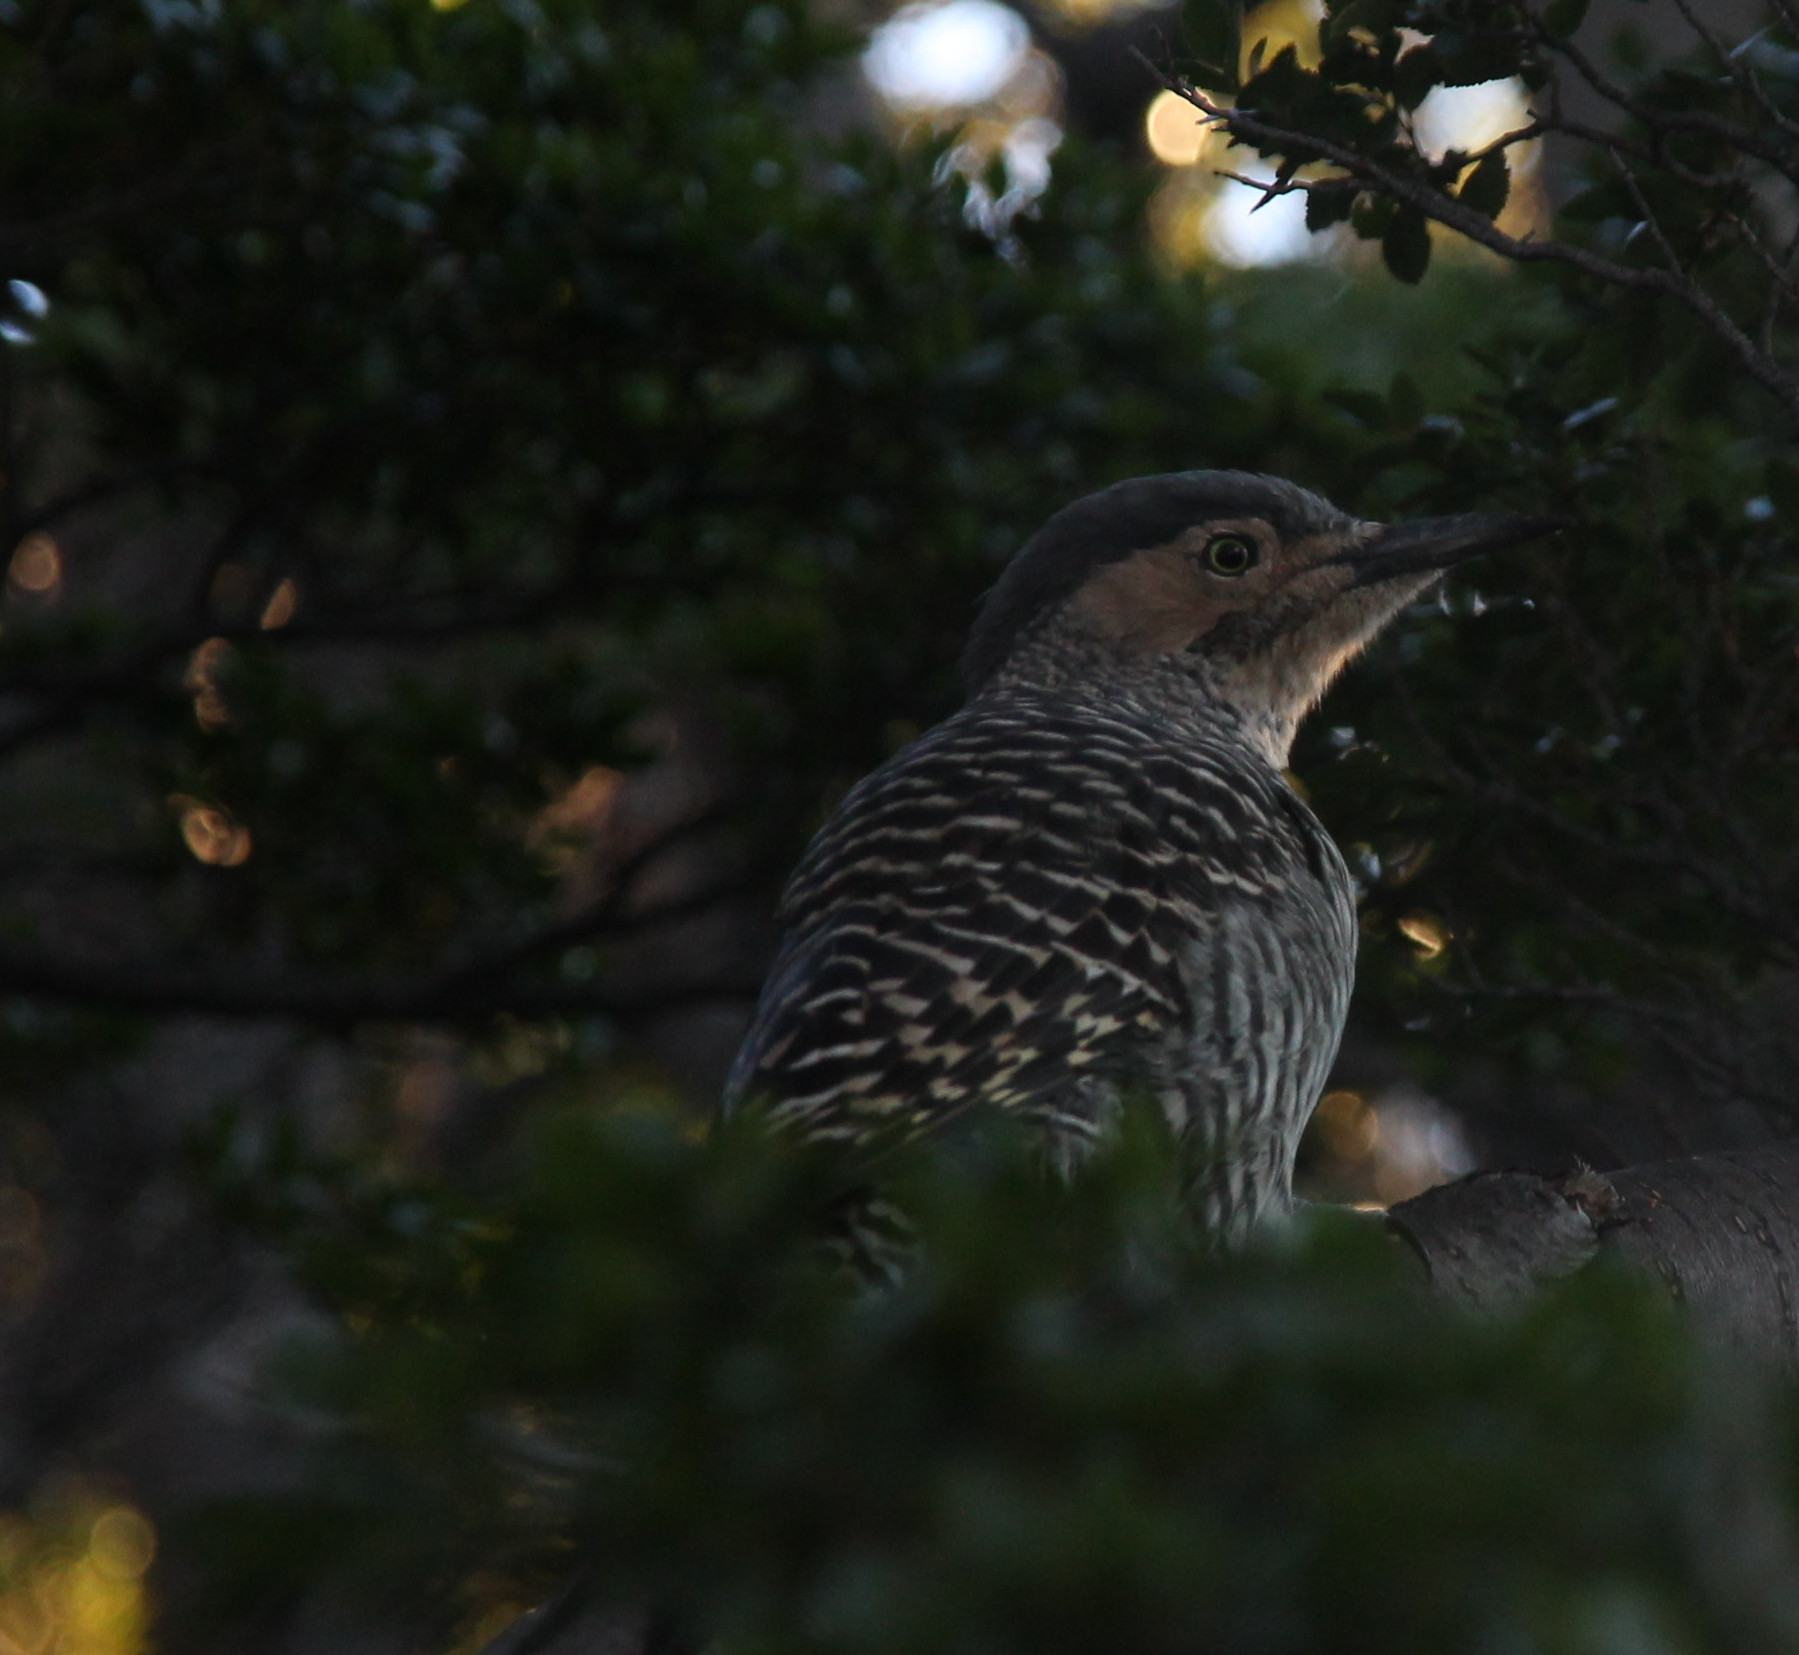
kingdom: Animalia
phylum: Chordata
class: Aves
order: Piciformes
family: Picidae
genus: Colaptes
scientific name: Colaptes pitius
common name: Chilean flicker
